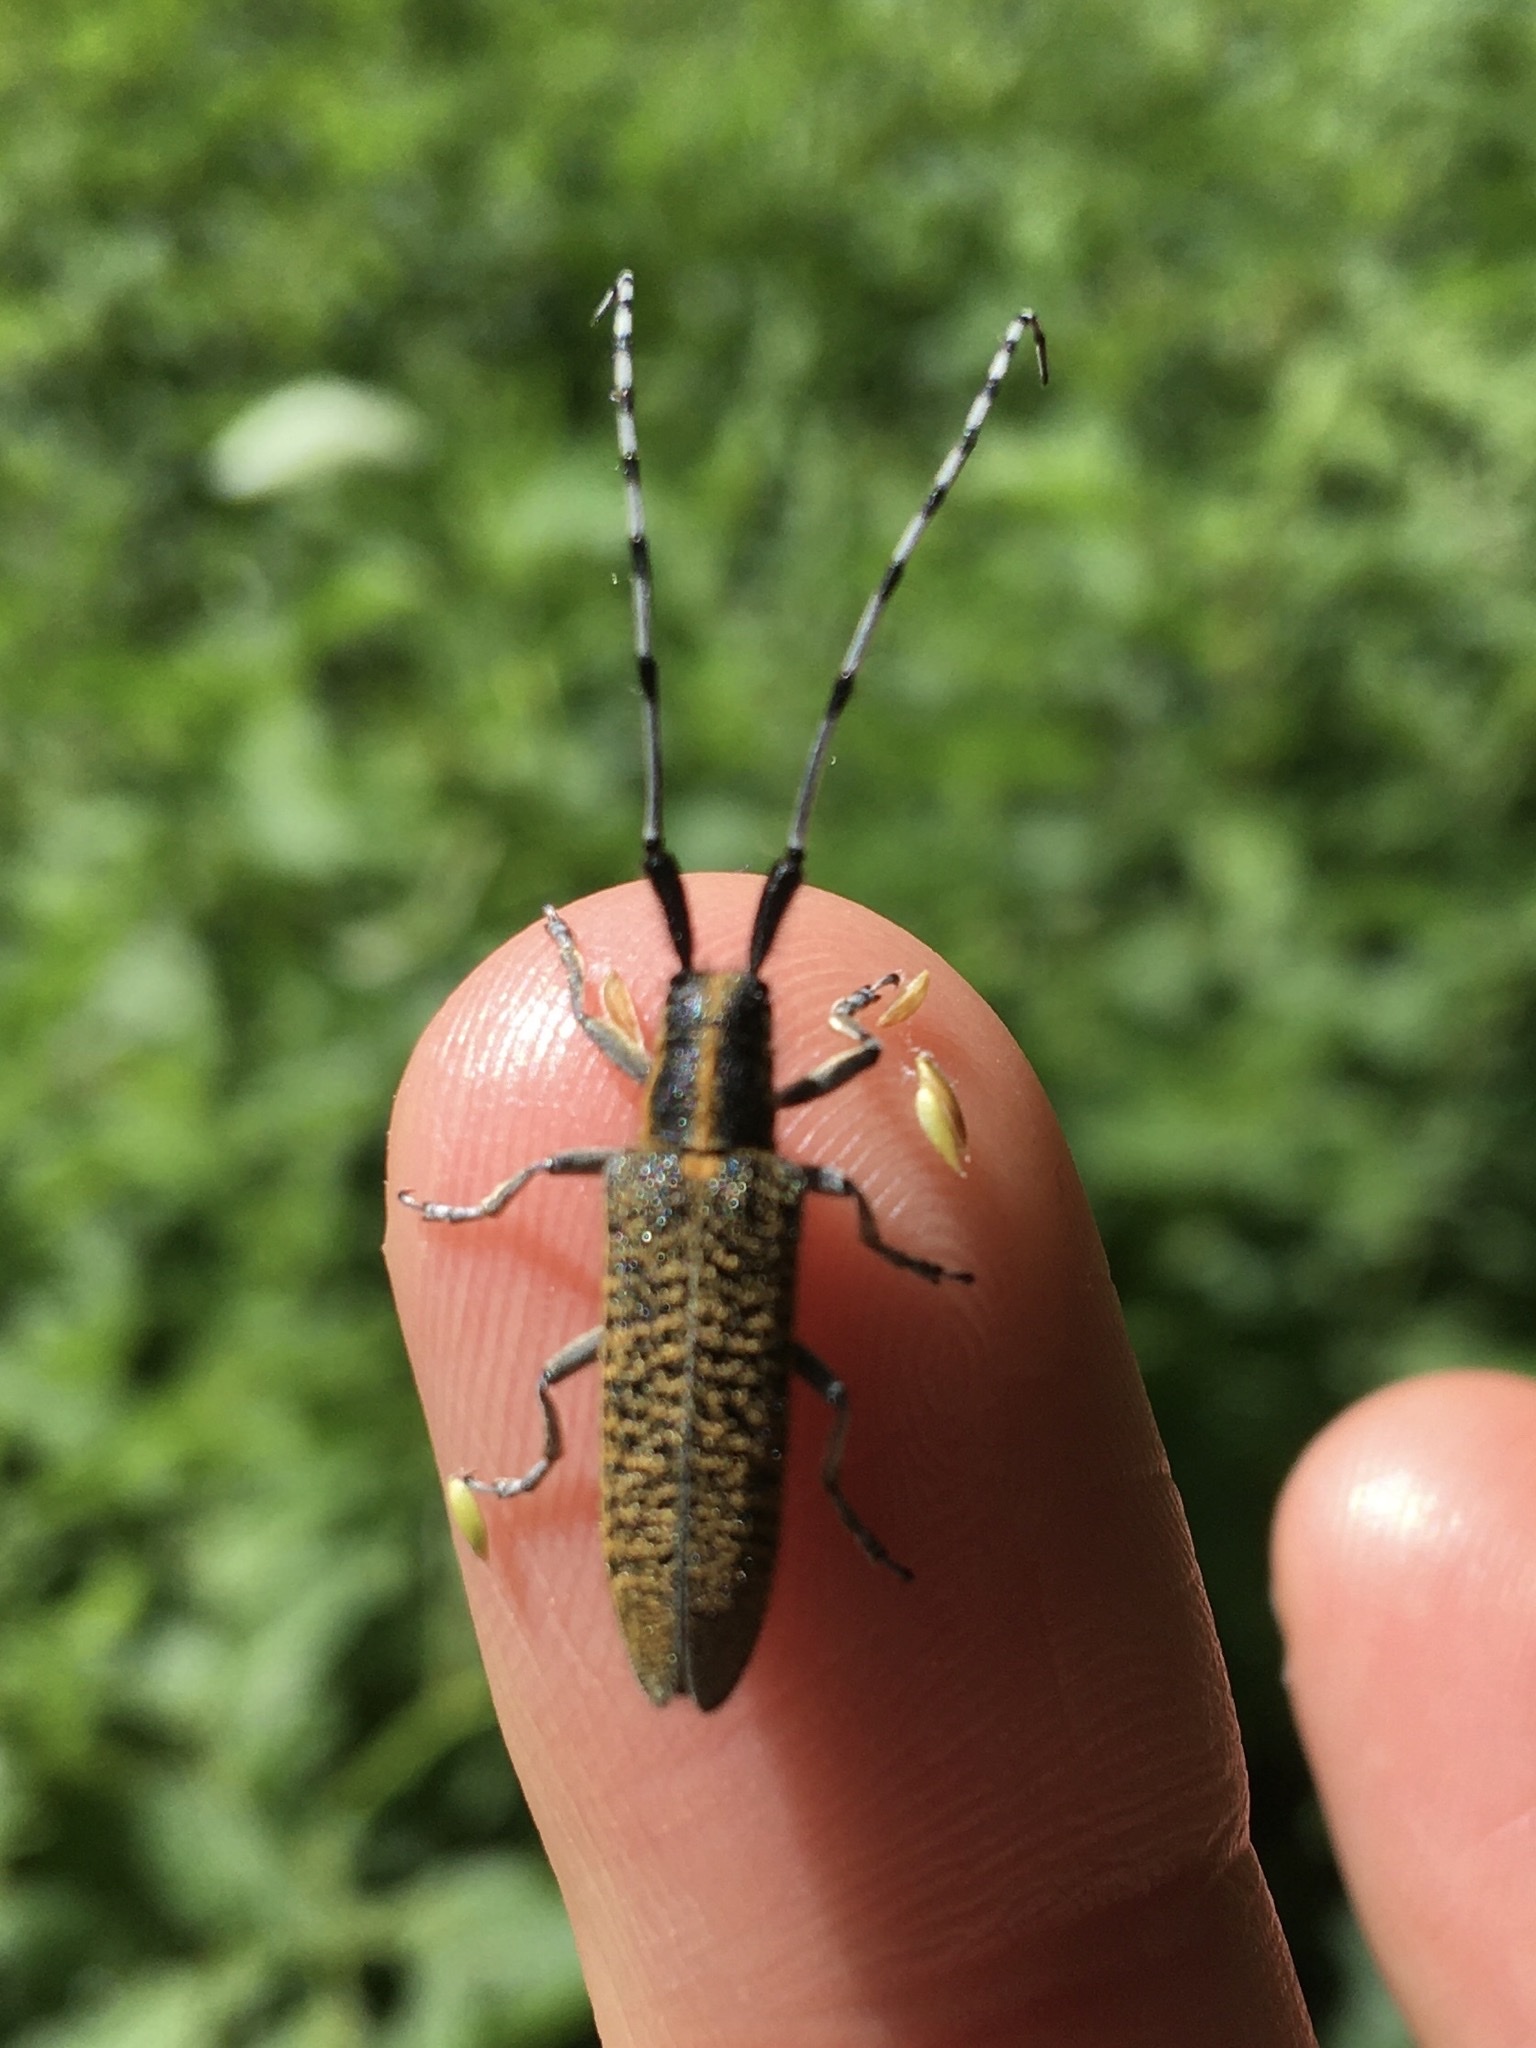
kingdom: Animalia
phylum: Arthropoda
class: Insecta
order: Coleoptera
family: Cerambycidae
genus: Agapanthia
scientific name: Agapanthia villosoviridescens
